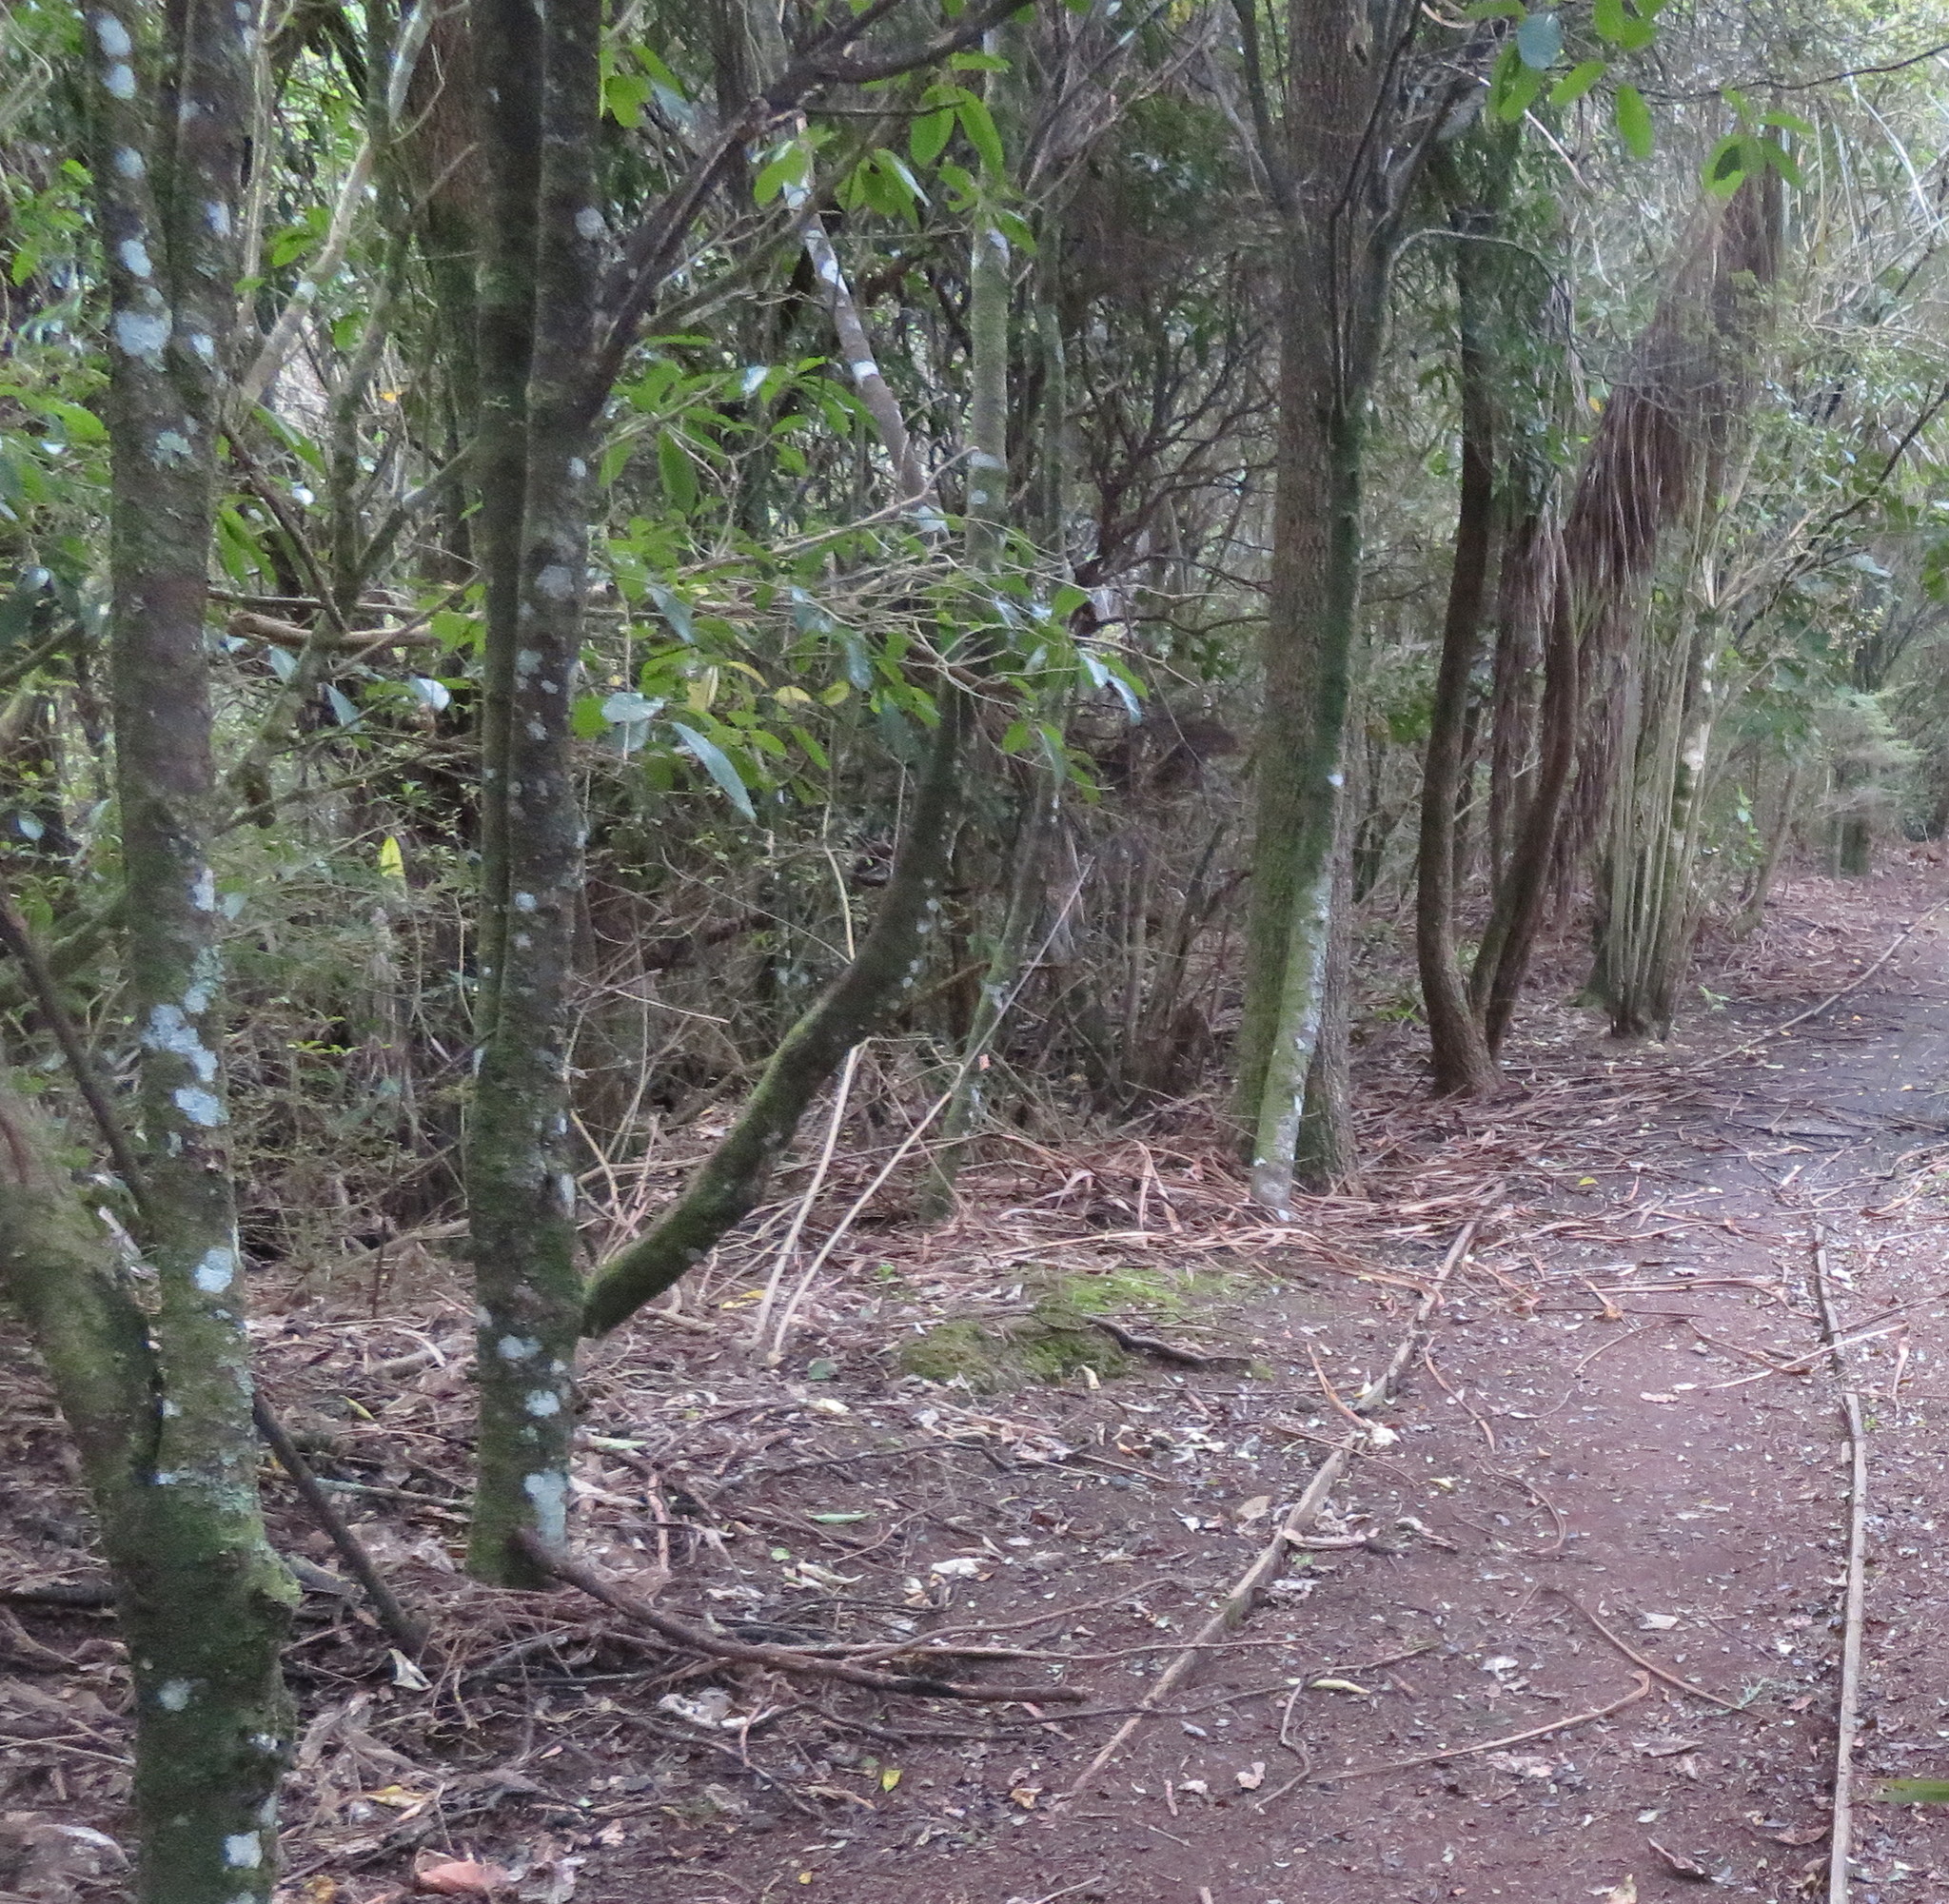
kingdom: Plantae
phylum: Tracheophyta
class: Magnoliopsida
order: Malpighiales
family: Violaceae
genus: Melicytus
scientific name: Melicytus ramiflorus
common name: Mahoe
